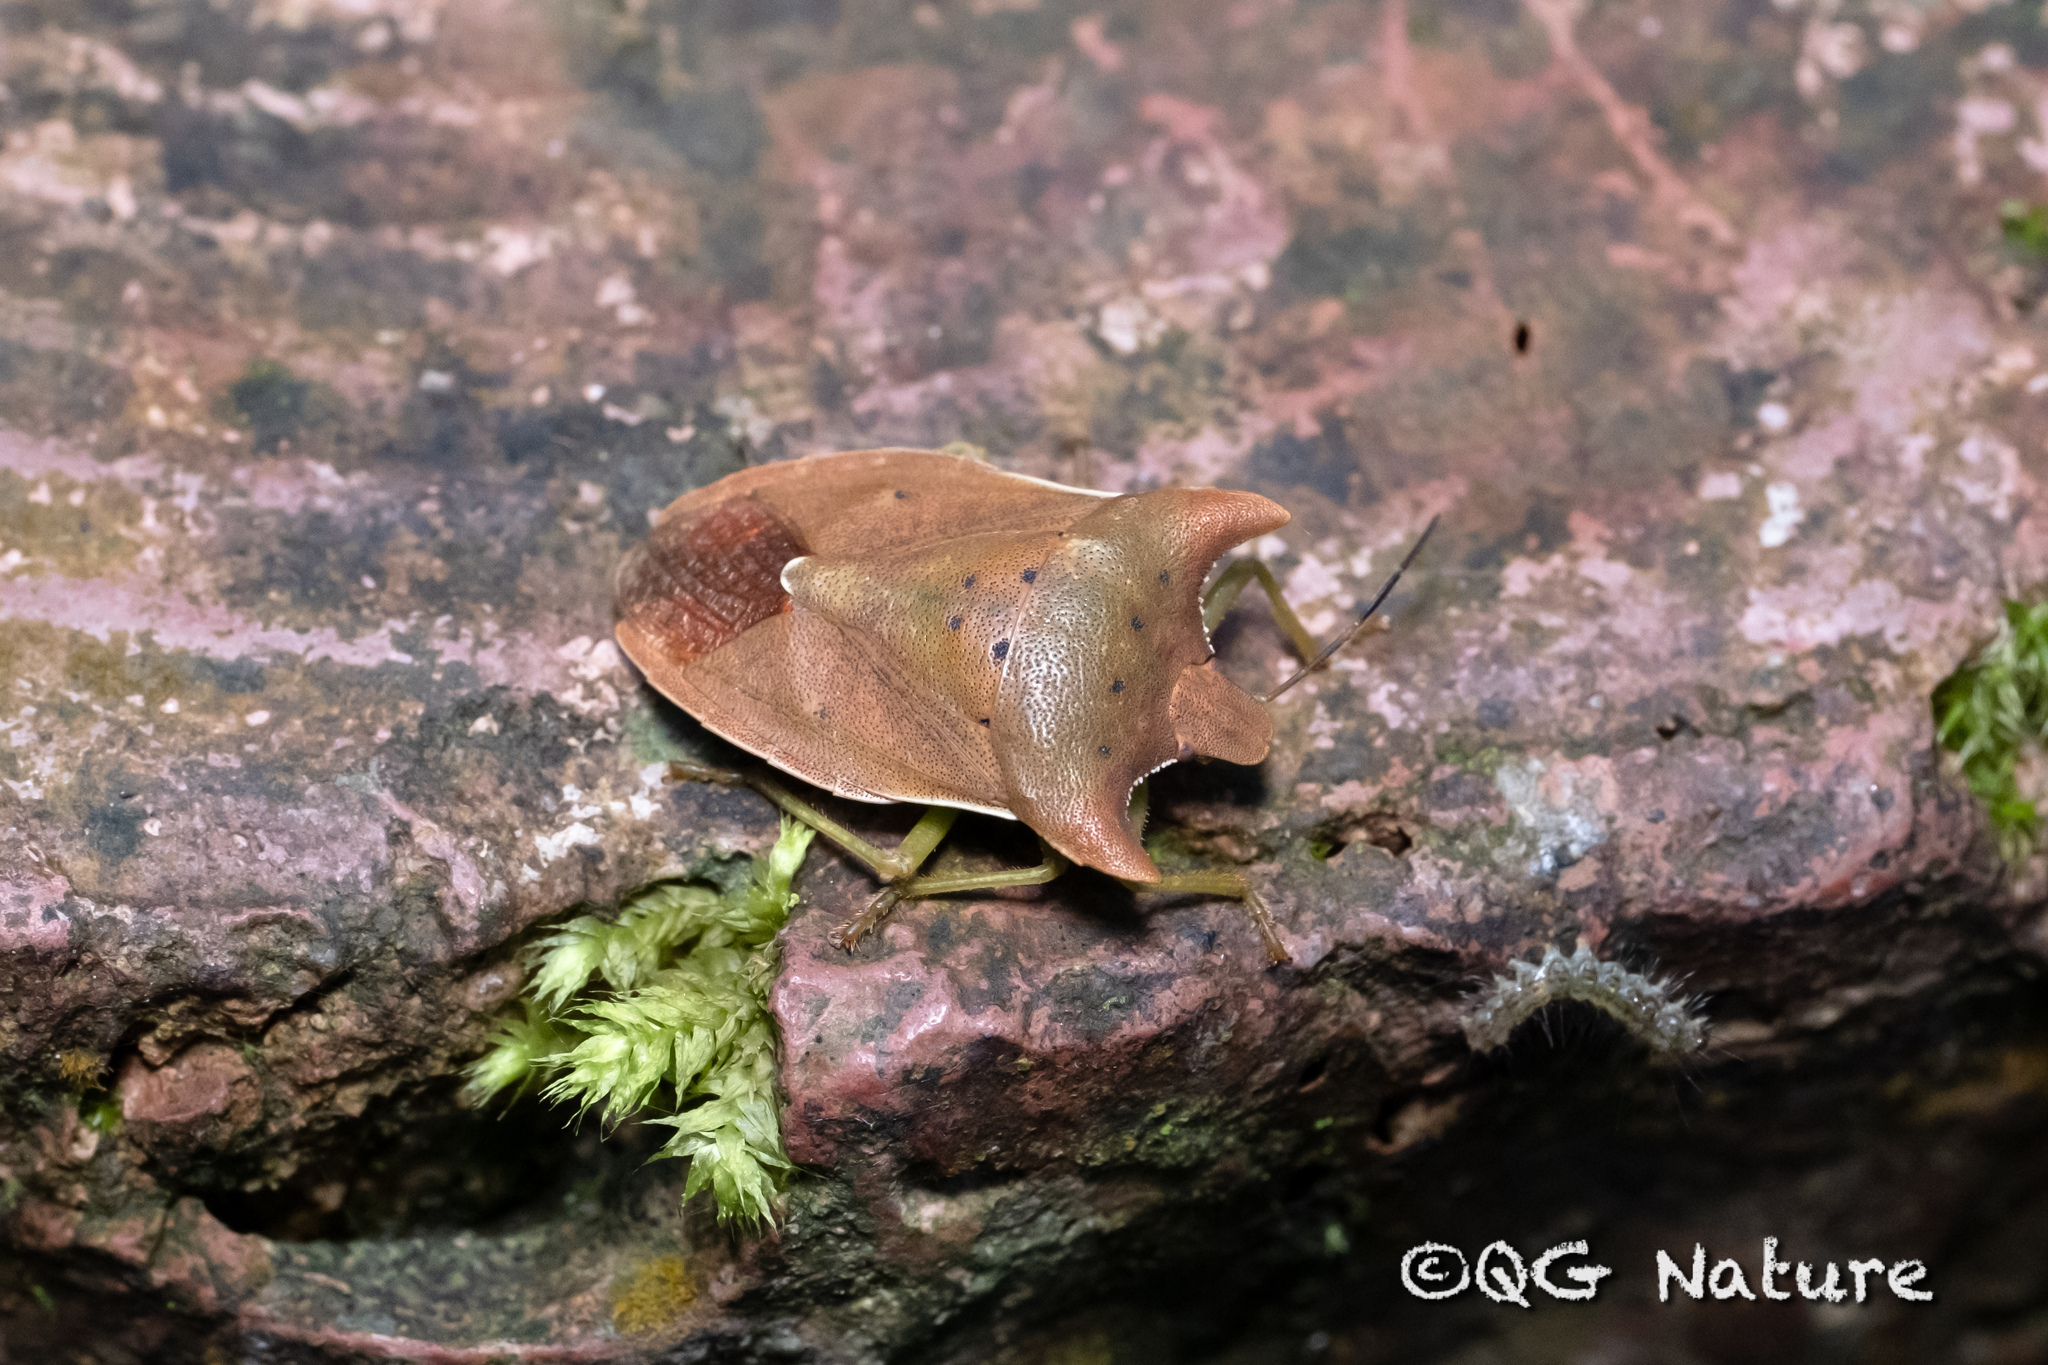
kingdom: Animalia
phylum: Arthropoda
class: Insecta
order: Hemiptera
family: Pentatomidae
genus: Lelia
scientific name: Lelia decempunctata
